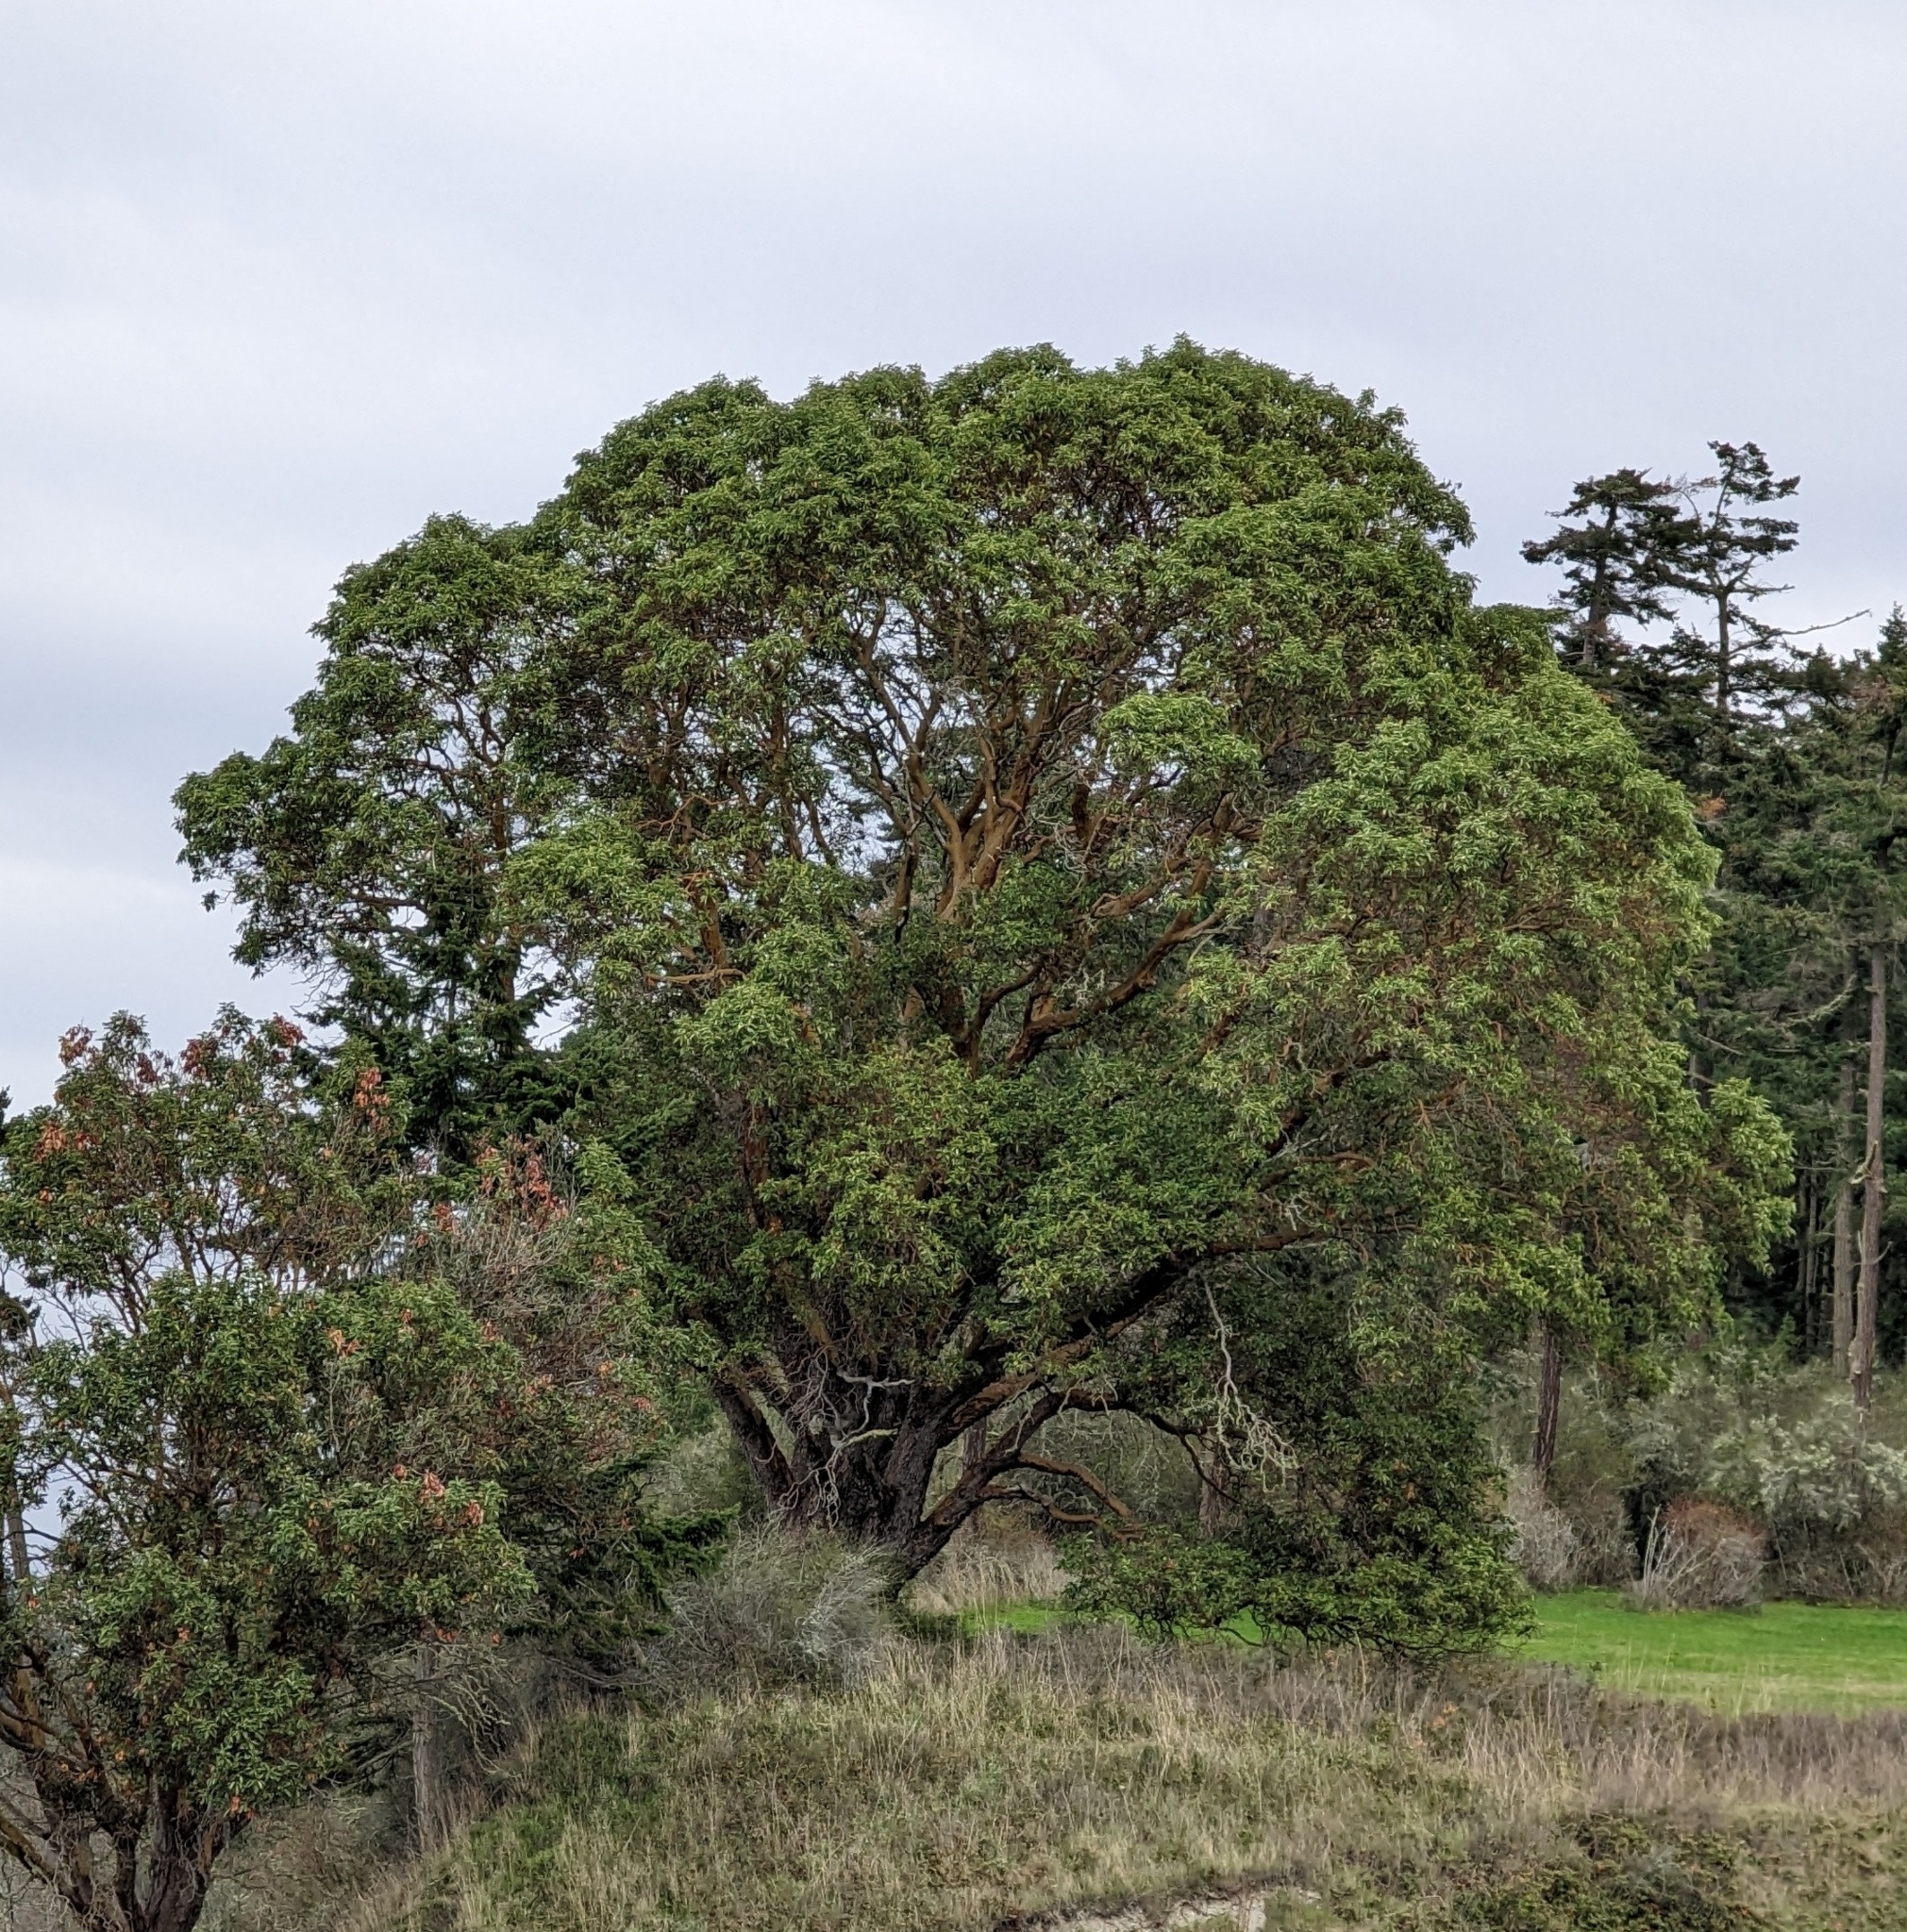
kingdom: Plantae
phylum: Tracheophyta
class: Magnoliopsida
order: Ericales
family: Ericaceae
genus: Arbutus
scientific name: Arbutus menziesii
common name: Pacific madrone
